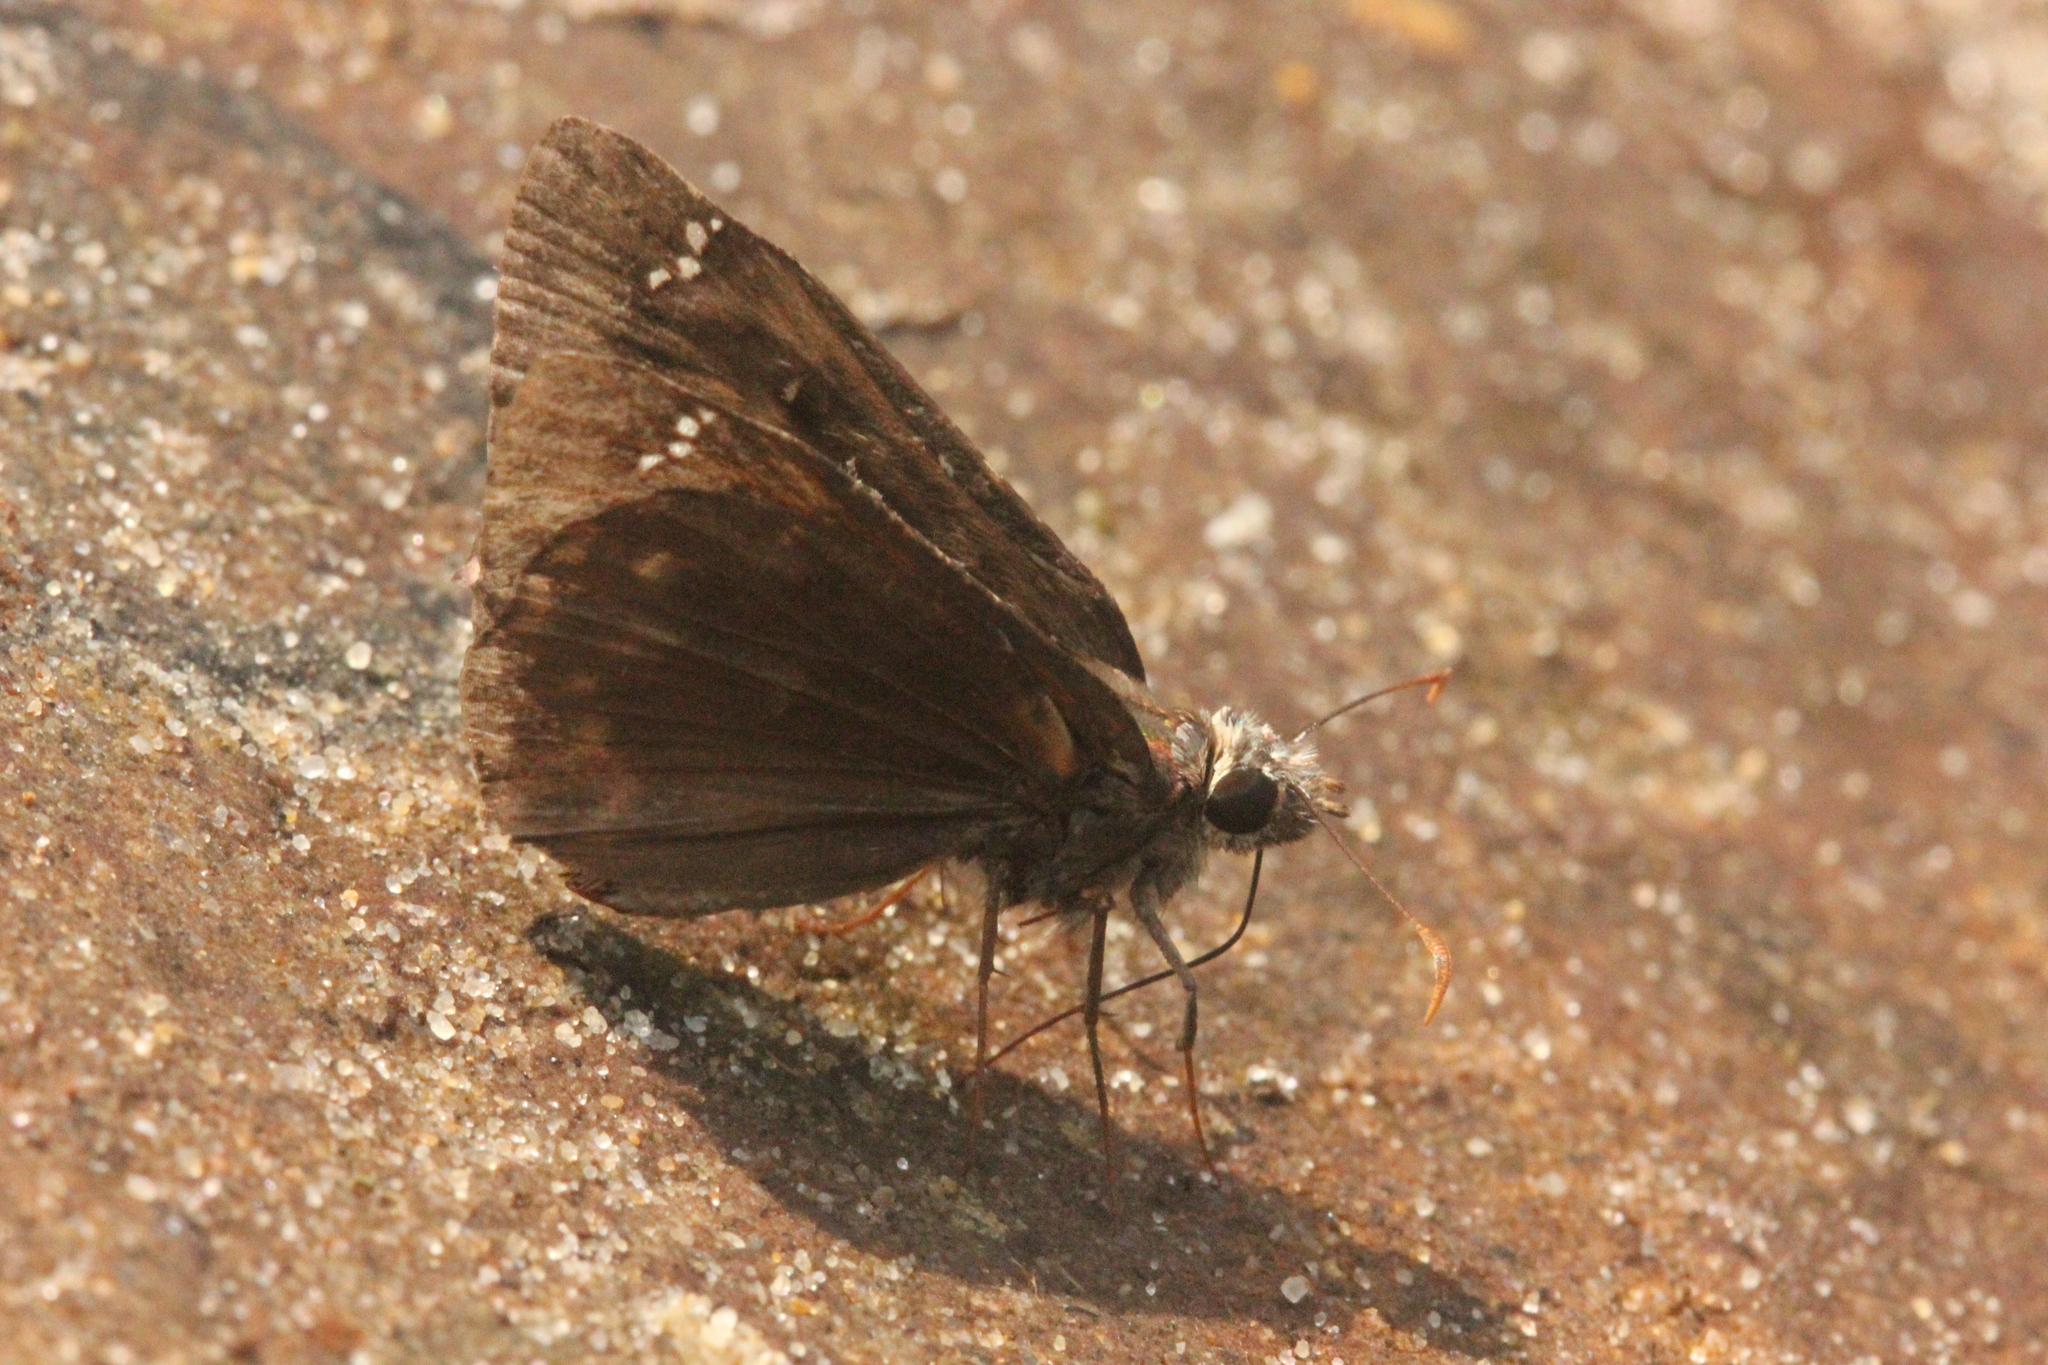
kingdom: Animalia
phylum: Arthropoda
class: Insecta
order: Lepidoptera
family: Hesperiidae
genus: Erynnis
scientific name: Erynnis horatius
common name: Horace's duskywing
